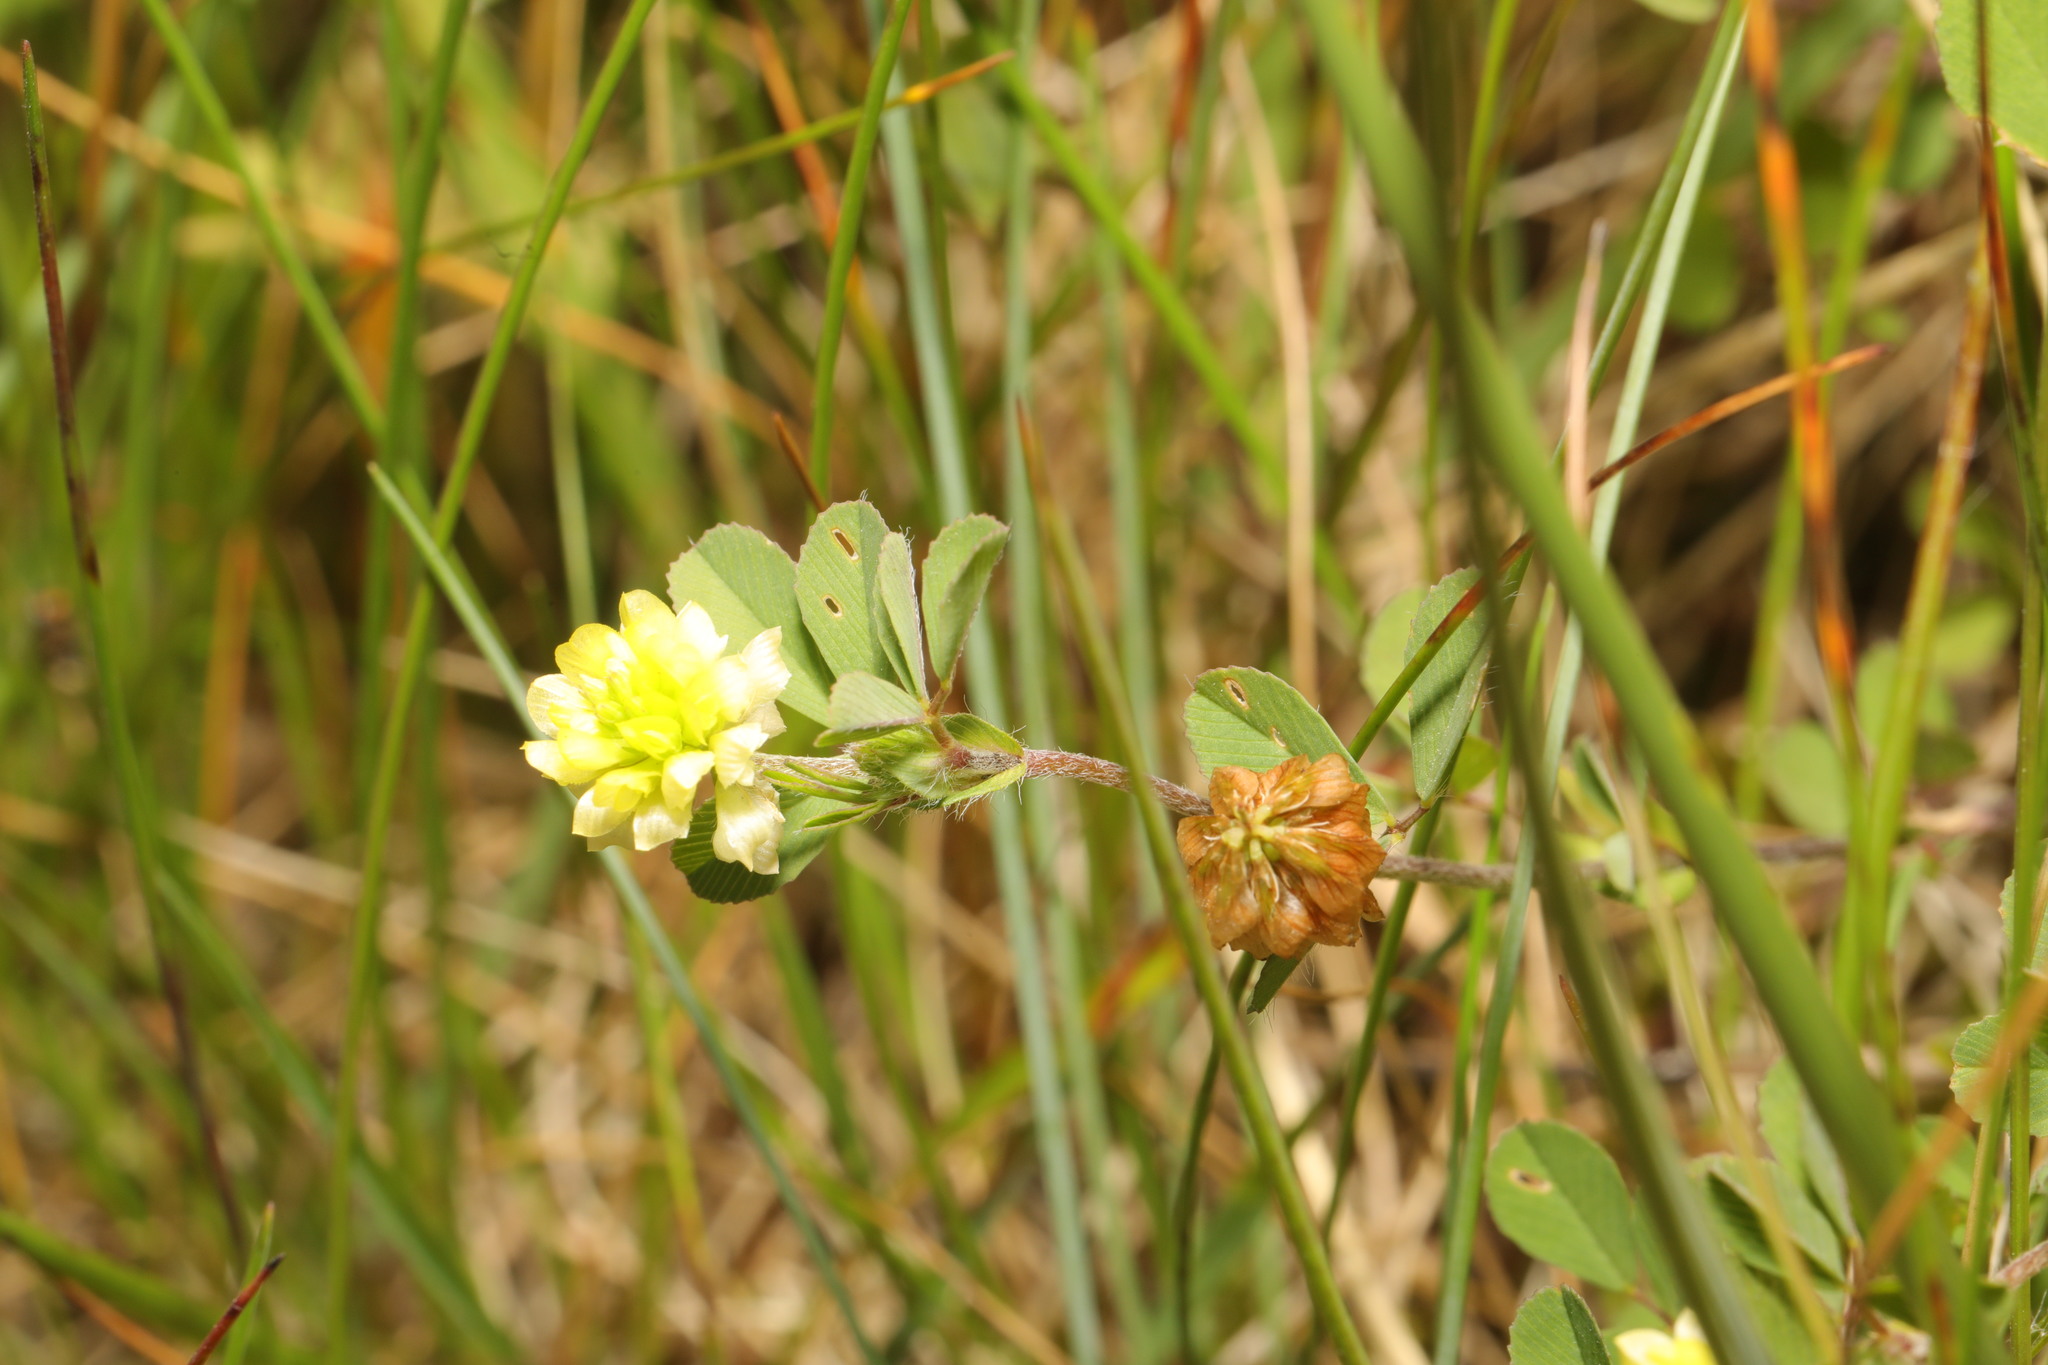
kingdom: Plantae
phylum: Tracheophyta
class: Magnoliopsida
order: Fabales
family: Fabaceae
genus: Trifolium
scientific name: Trifolium campestre
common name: Field clover
